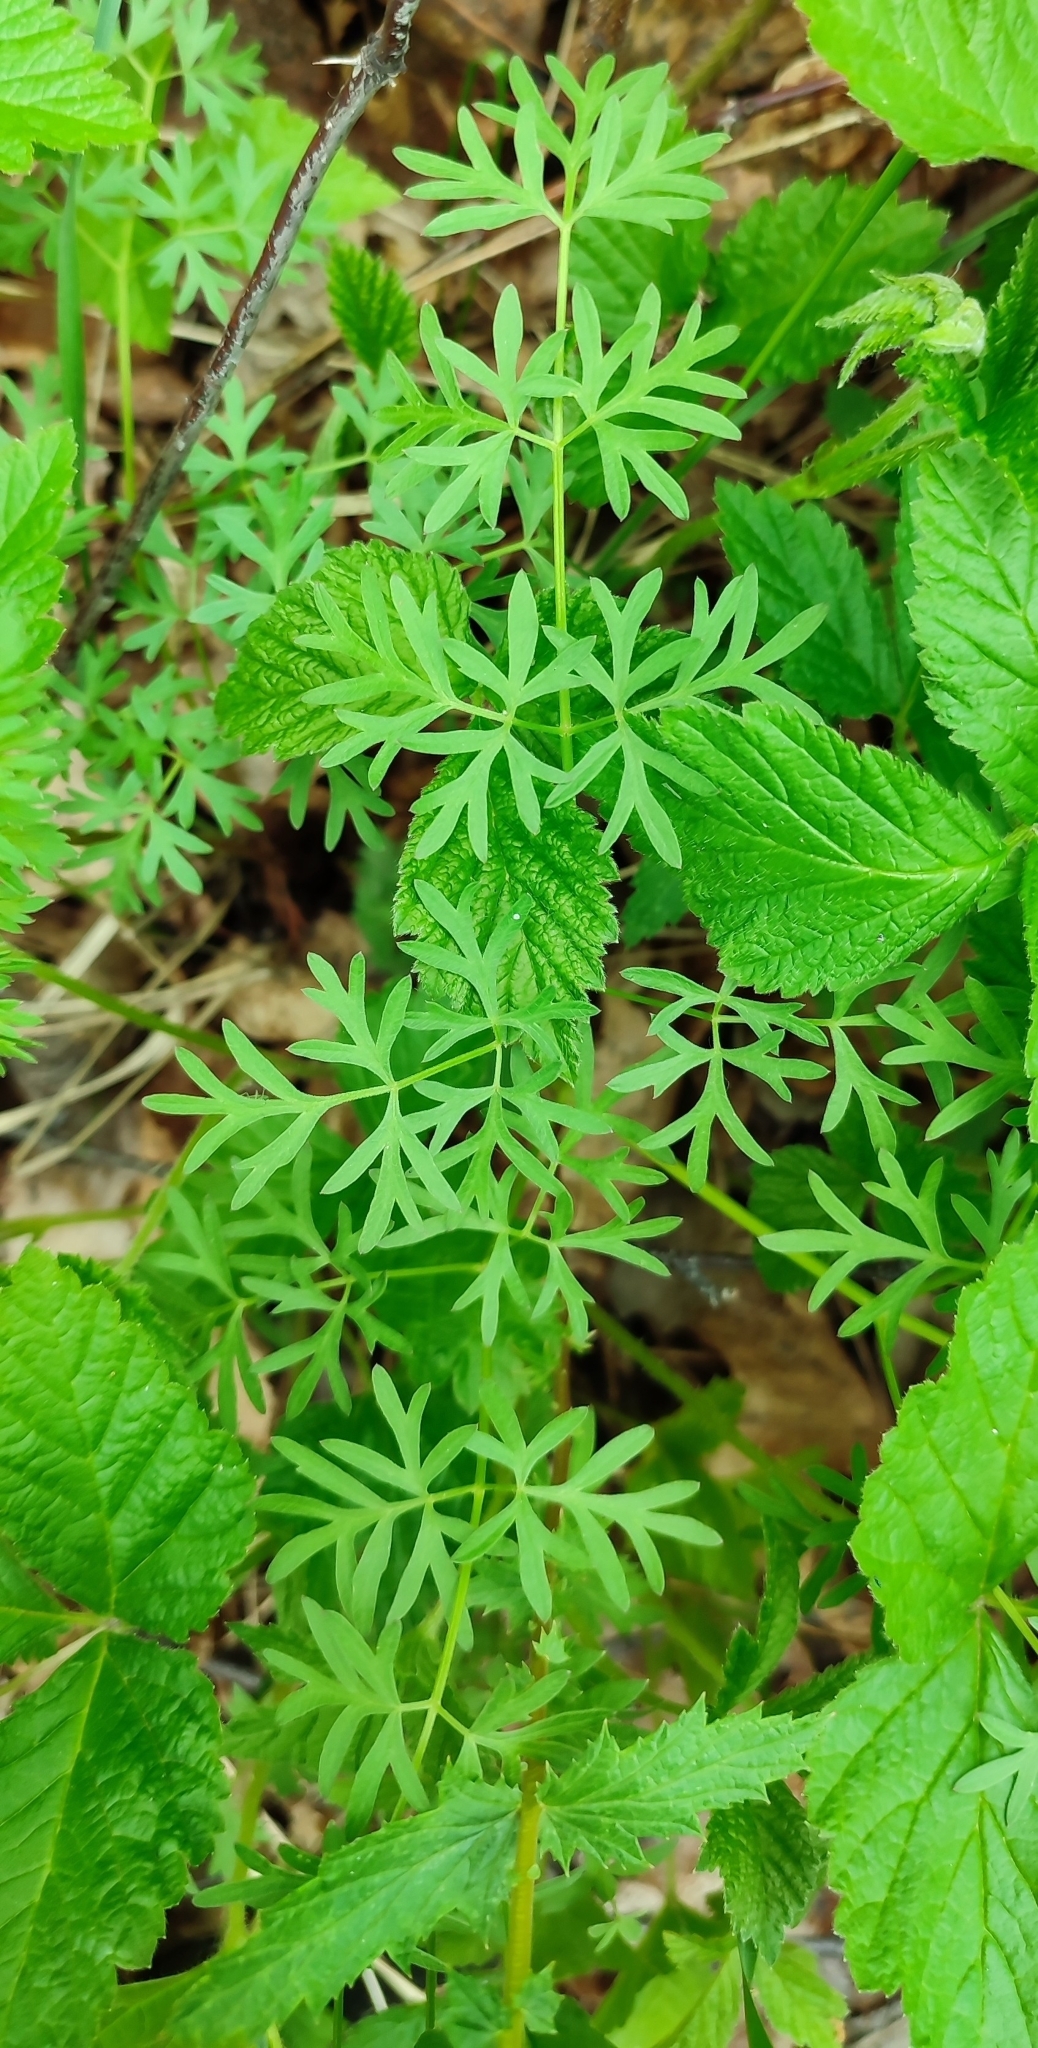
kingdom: Plantae
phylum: Tracheophyta
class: Magnoliopsida
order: Apiales
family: Apiaceae
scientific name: Apiaceae
